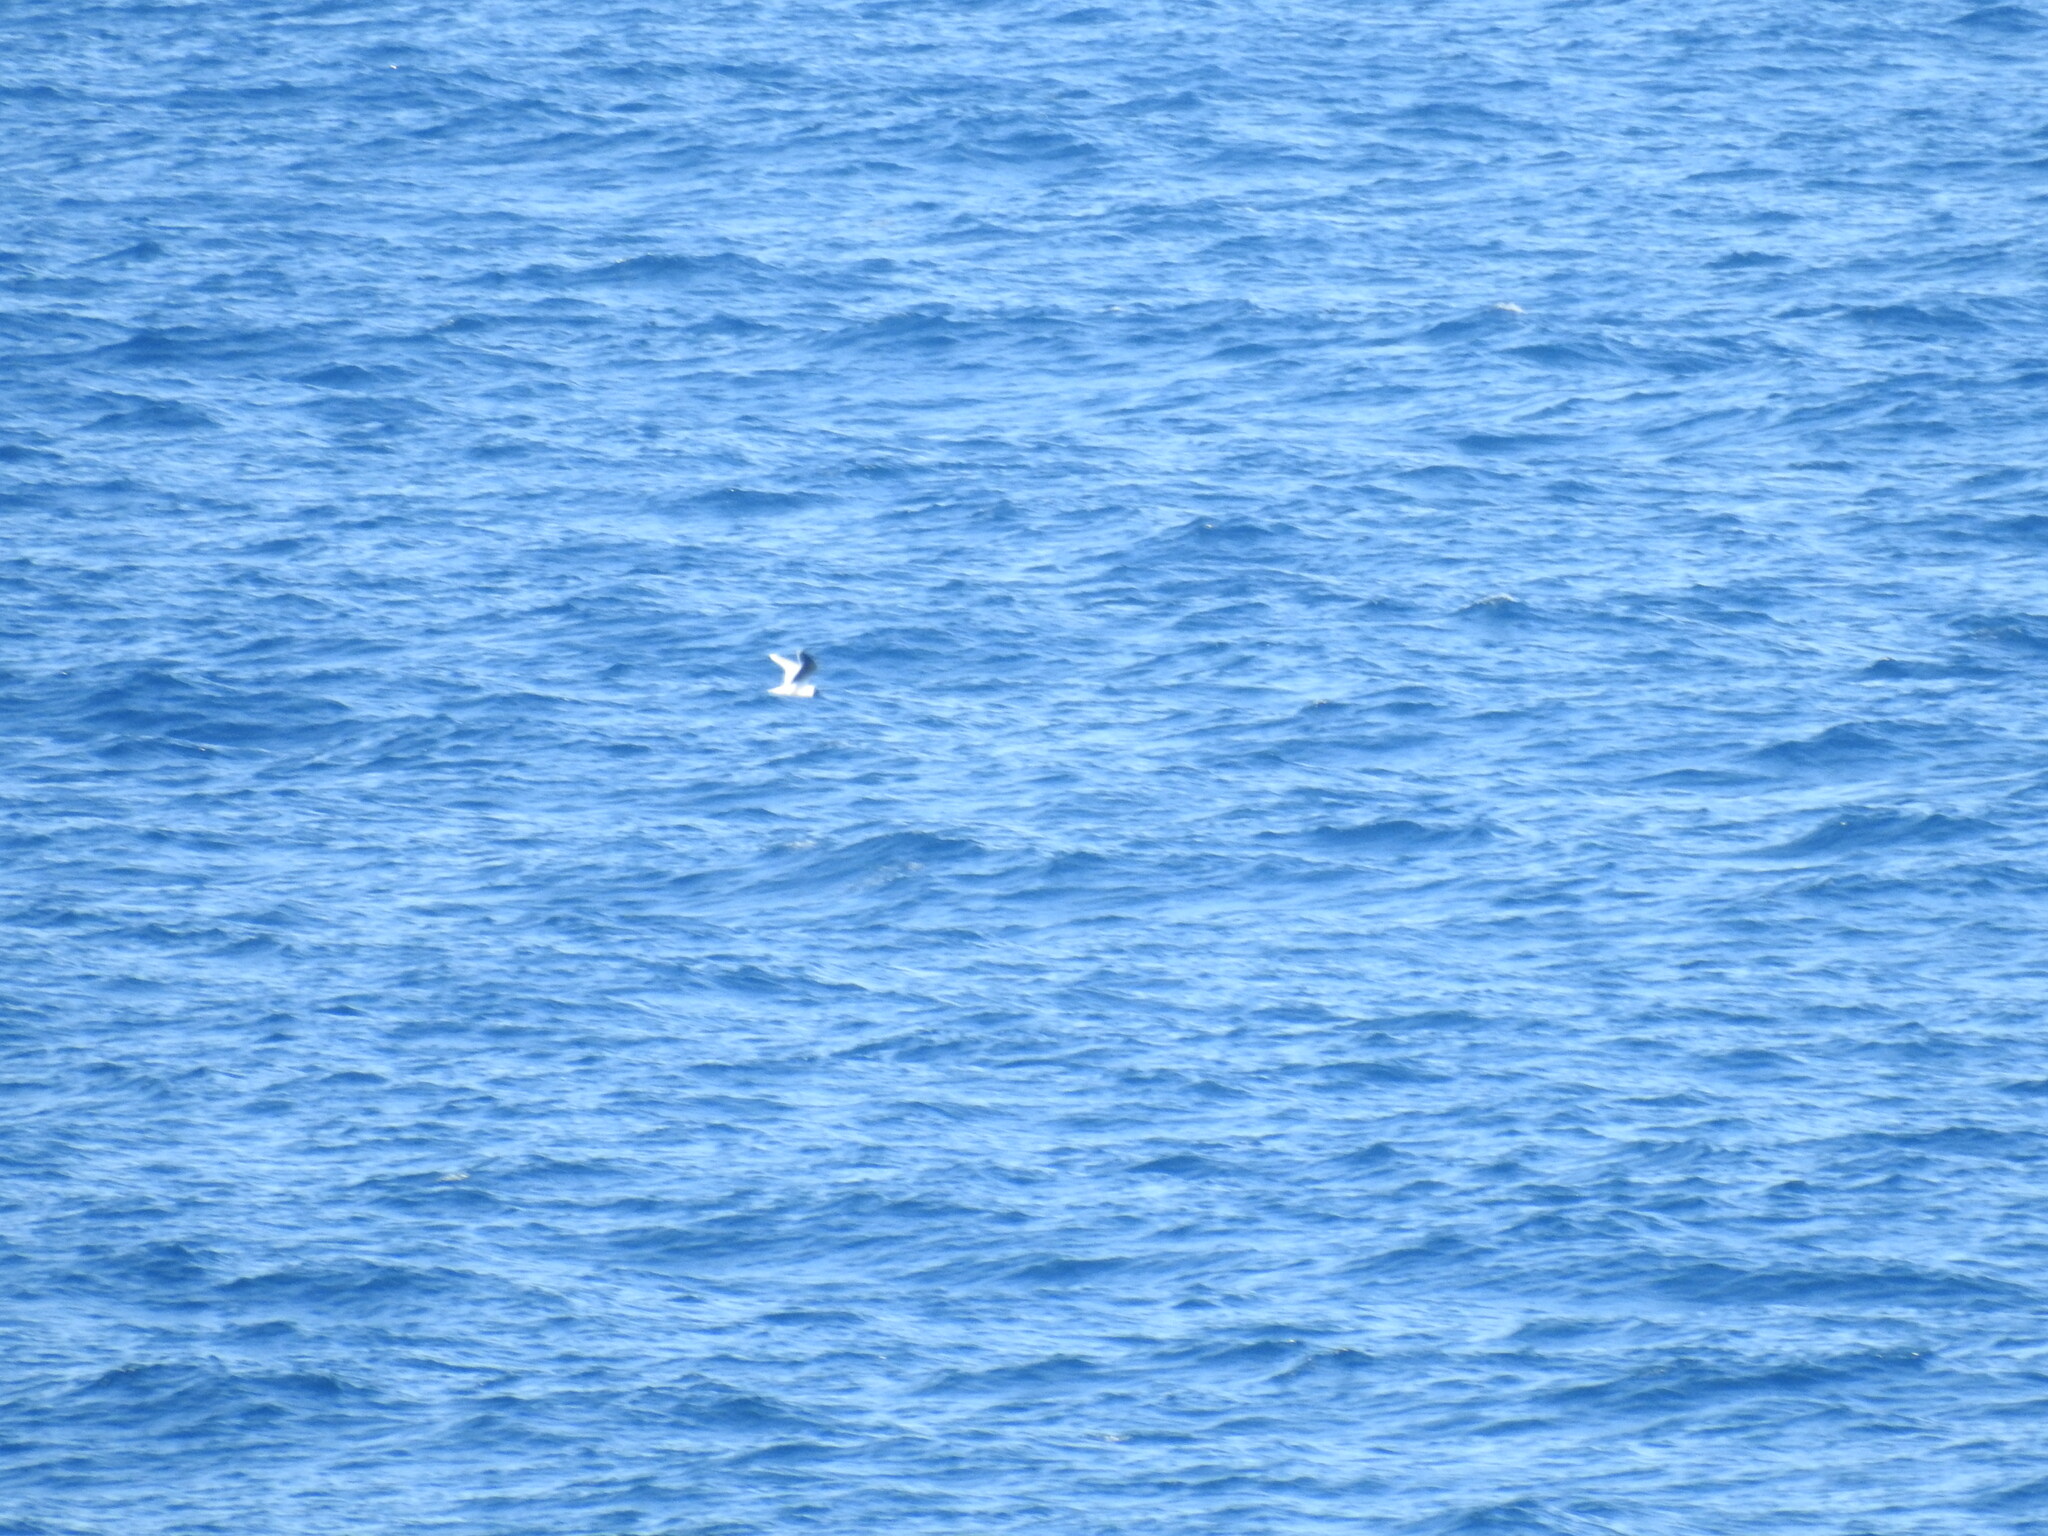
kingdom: Animalia
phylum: Chordata
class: Aves
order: Charadriiformes
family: Laridae
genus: Hydrocoloeus
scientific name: Hydrocoloeus minutus
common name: Little gull
